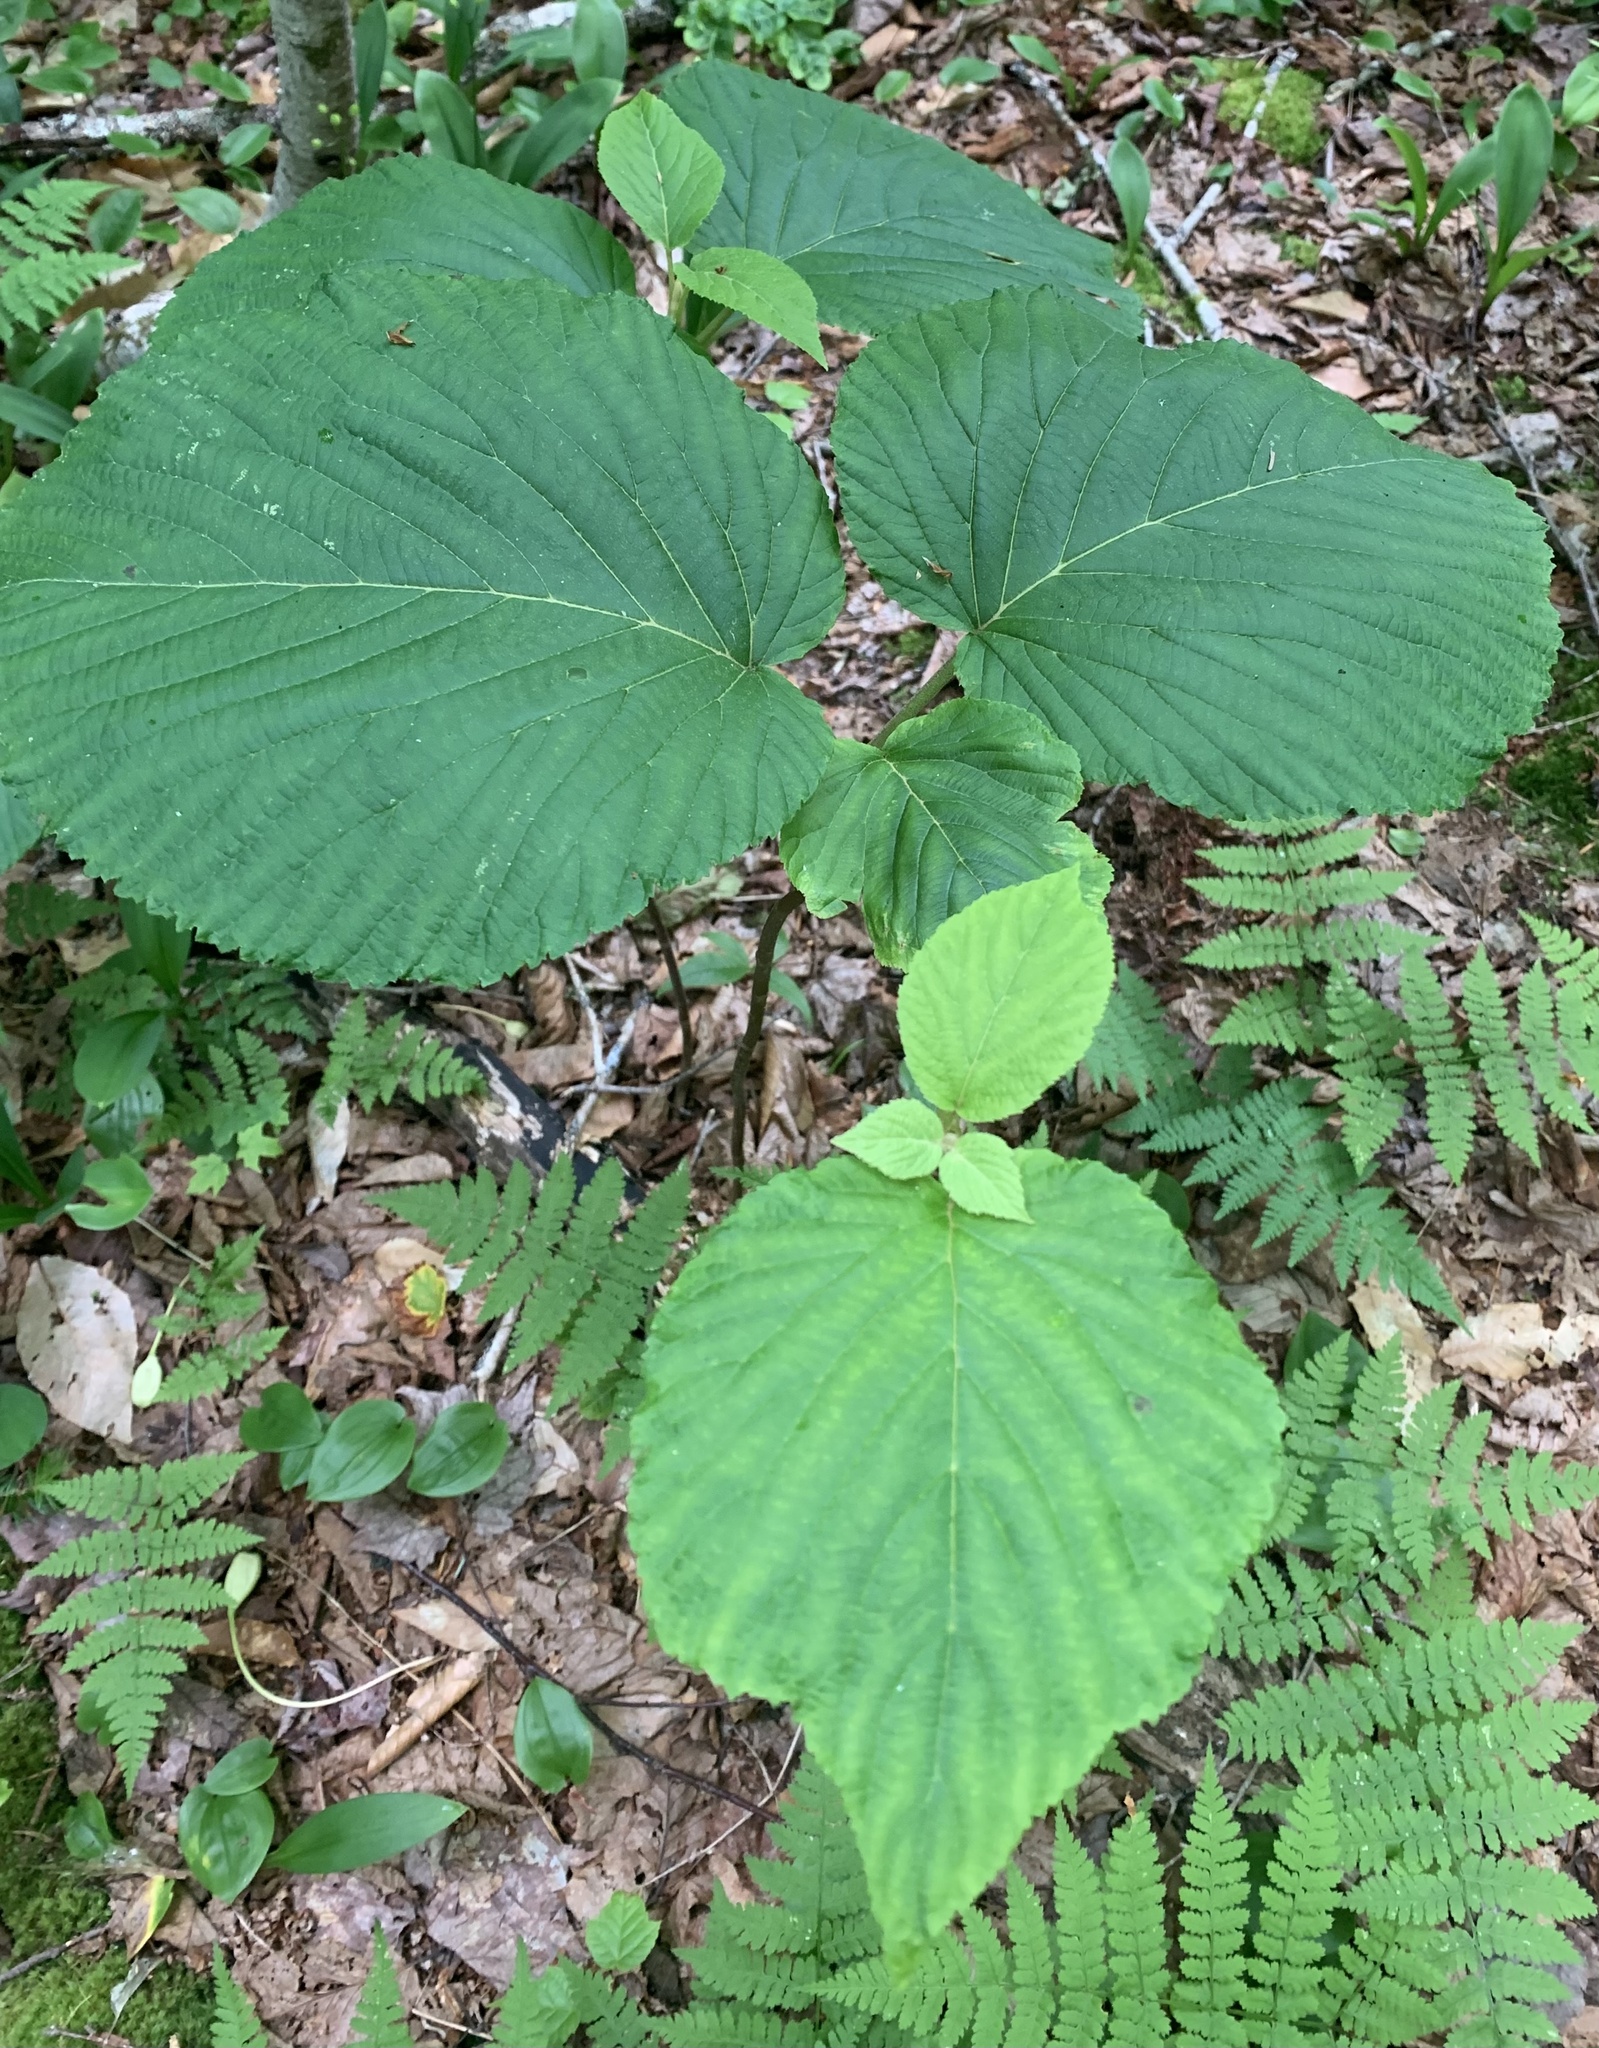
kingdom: Plantae
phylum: Tracheophyta
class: Magnoliopsida
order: Dipsacales
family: Viburnaceae
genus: Viburnum
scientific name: Viburnum lantanoides
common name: Hobblebush
